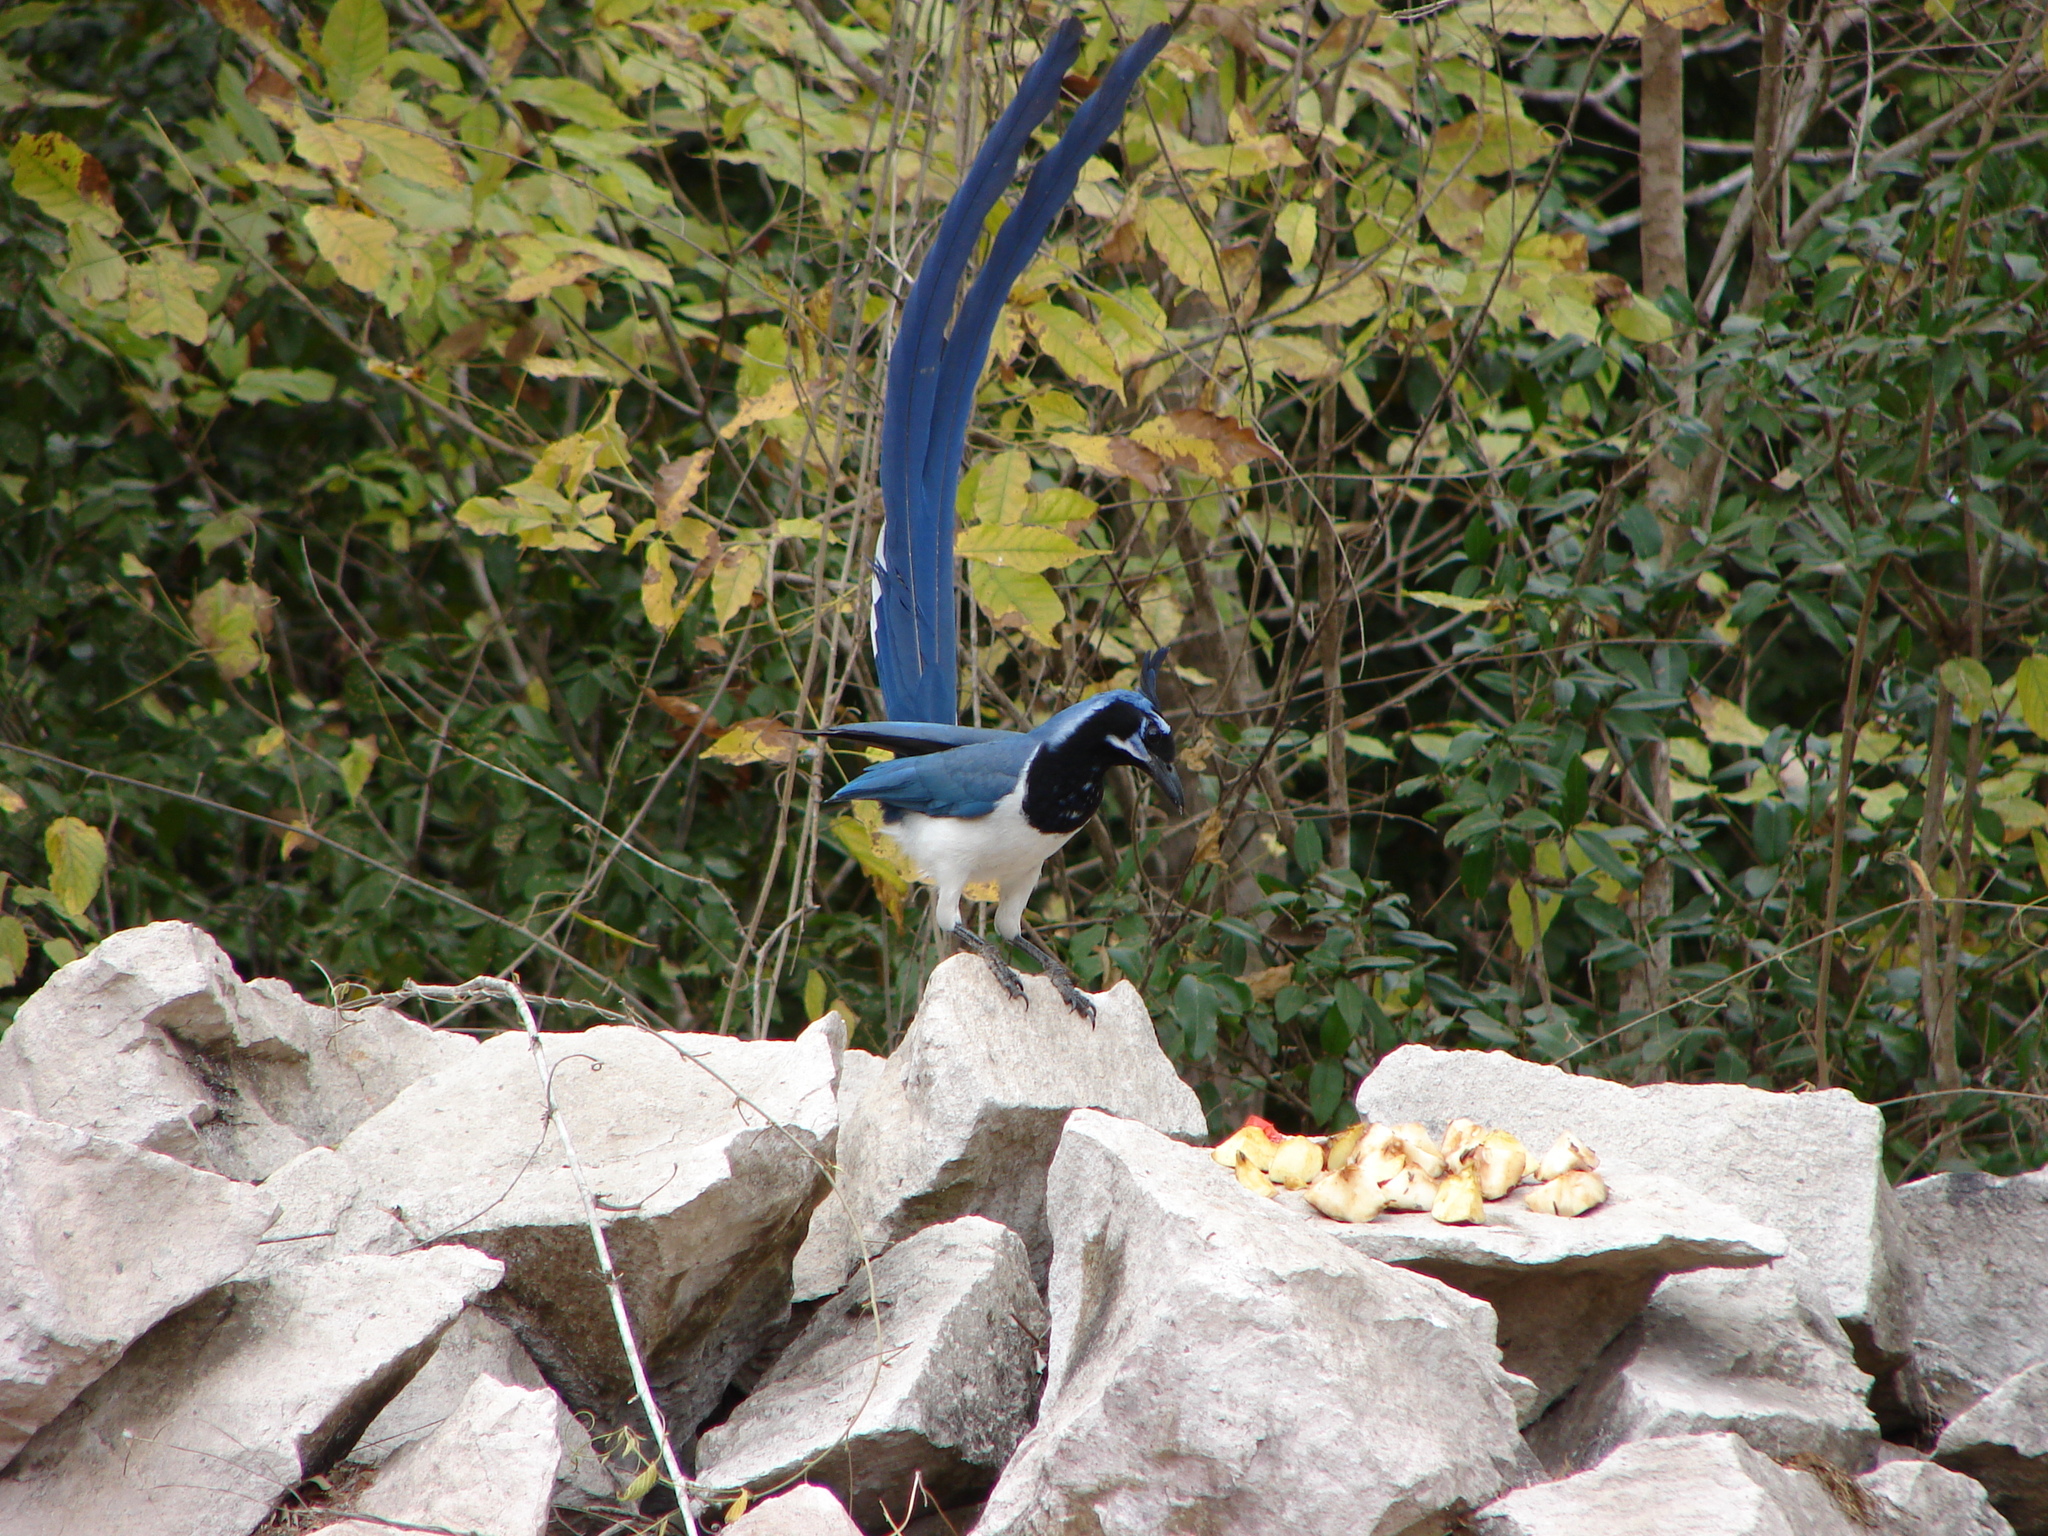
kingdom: Animalia
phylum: Chordata
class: Aves
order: Passeriformes
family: Corvidae
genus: Calocitta
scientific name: Calocitta colliei
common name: Black-throated magpie-jay
